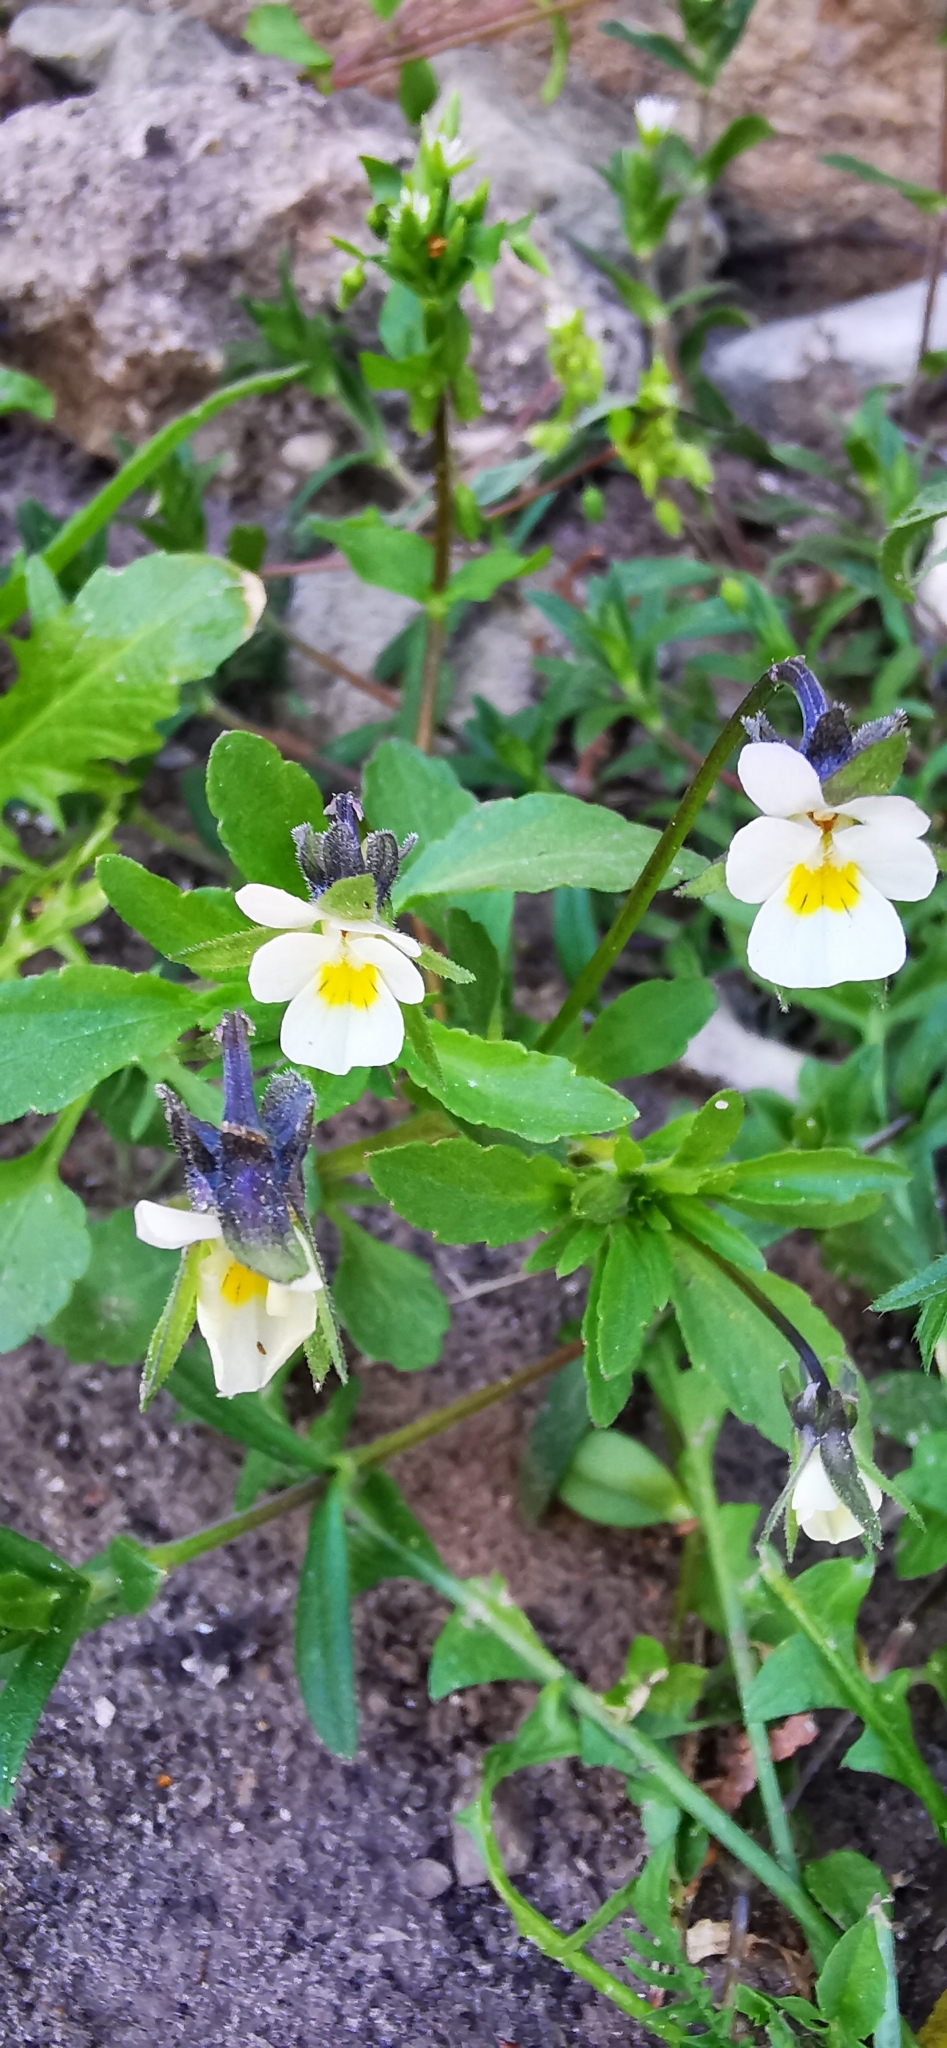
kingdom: Plantae
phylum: Tracheophyta
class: Magnoliopsida
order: Malpighiales
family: Violaceae
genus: Viola
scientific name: Viola arvensis
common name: Field pansy
